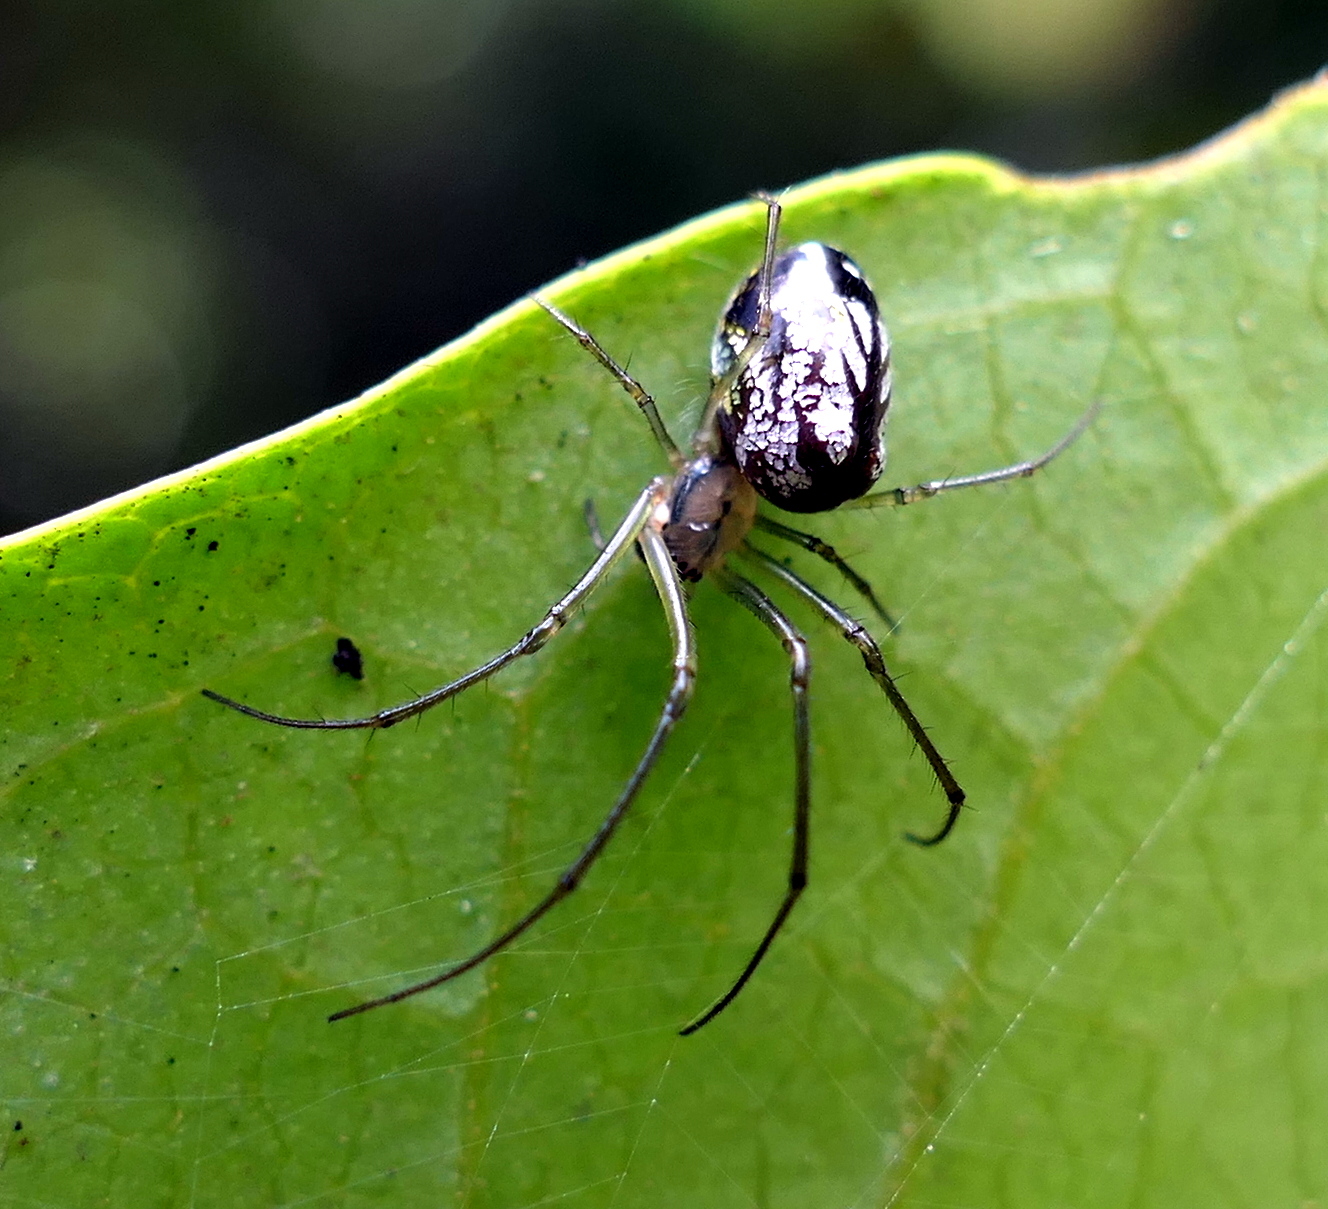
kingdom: Animalia
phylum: Arthropoda
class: Arachnida
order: Araneae
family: Tetragnathidae
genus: Leucauge
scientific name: Leucauge volupis
